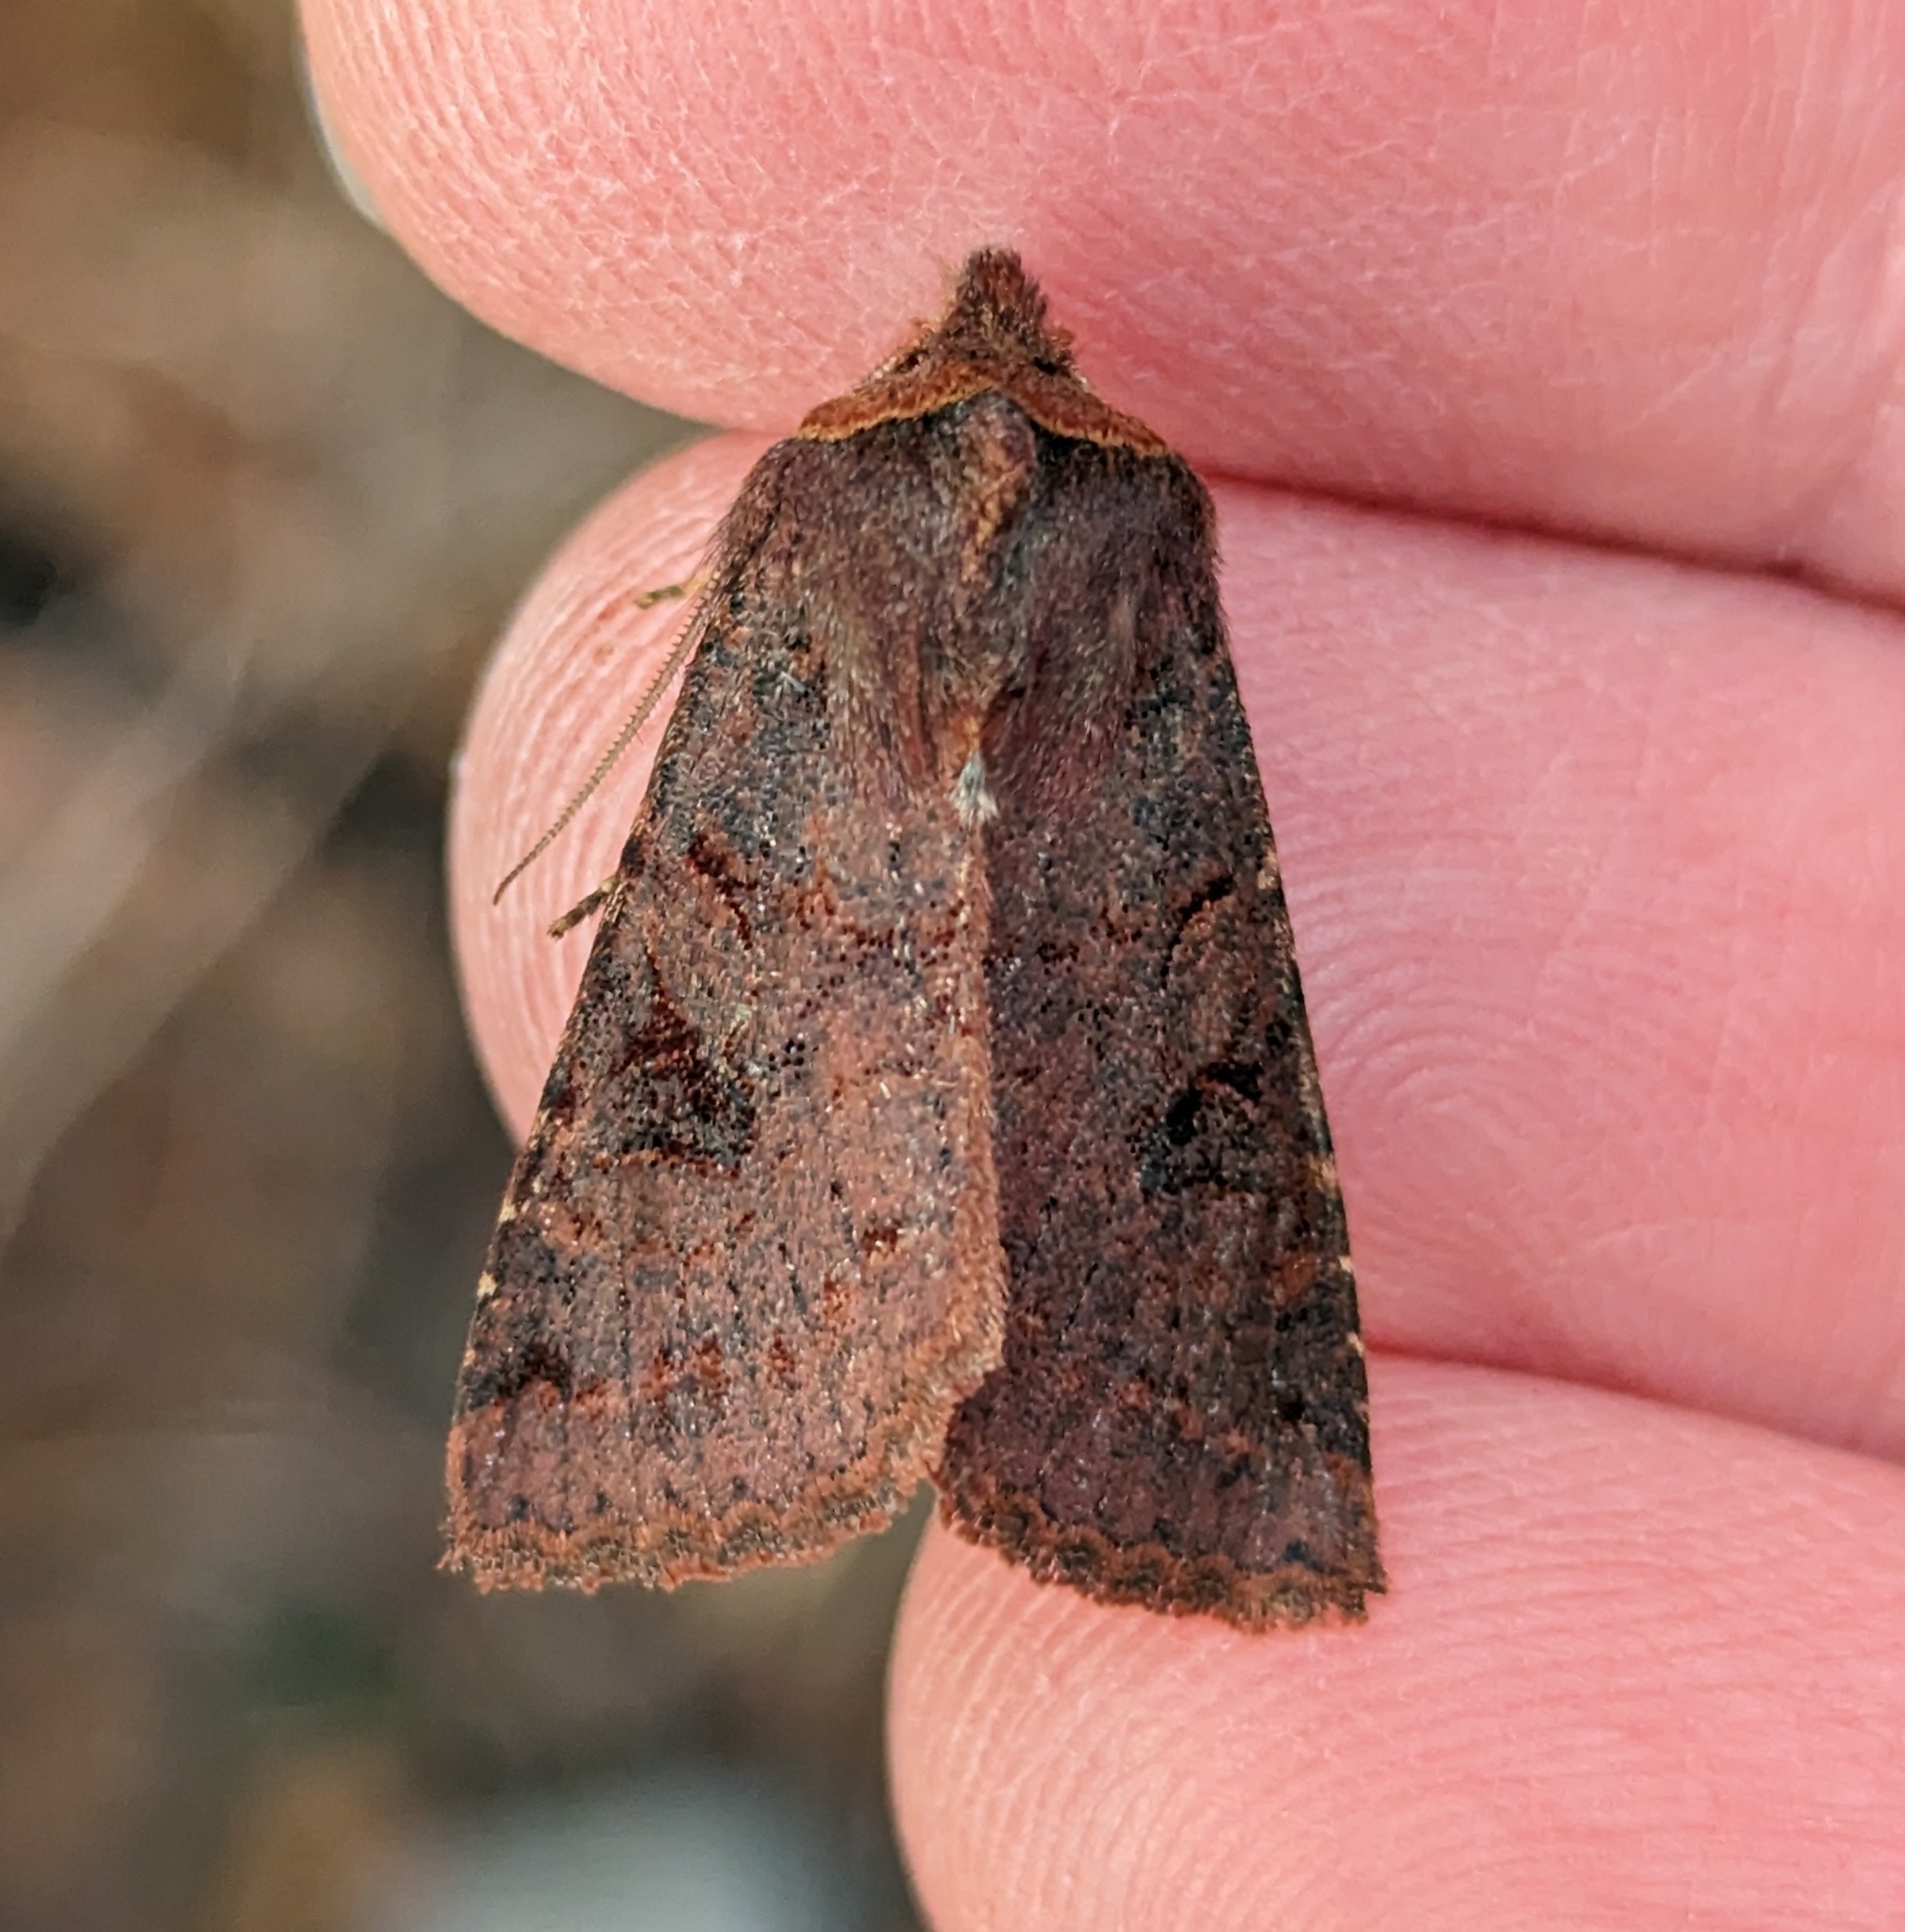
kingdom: Animalia
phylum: Arthropoda
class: Insecta
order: Lepidoptera
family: Noctuidae
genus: Orthosia
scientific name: Orthosia praeses
